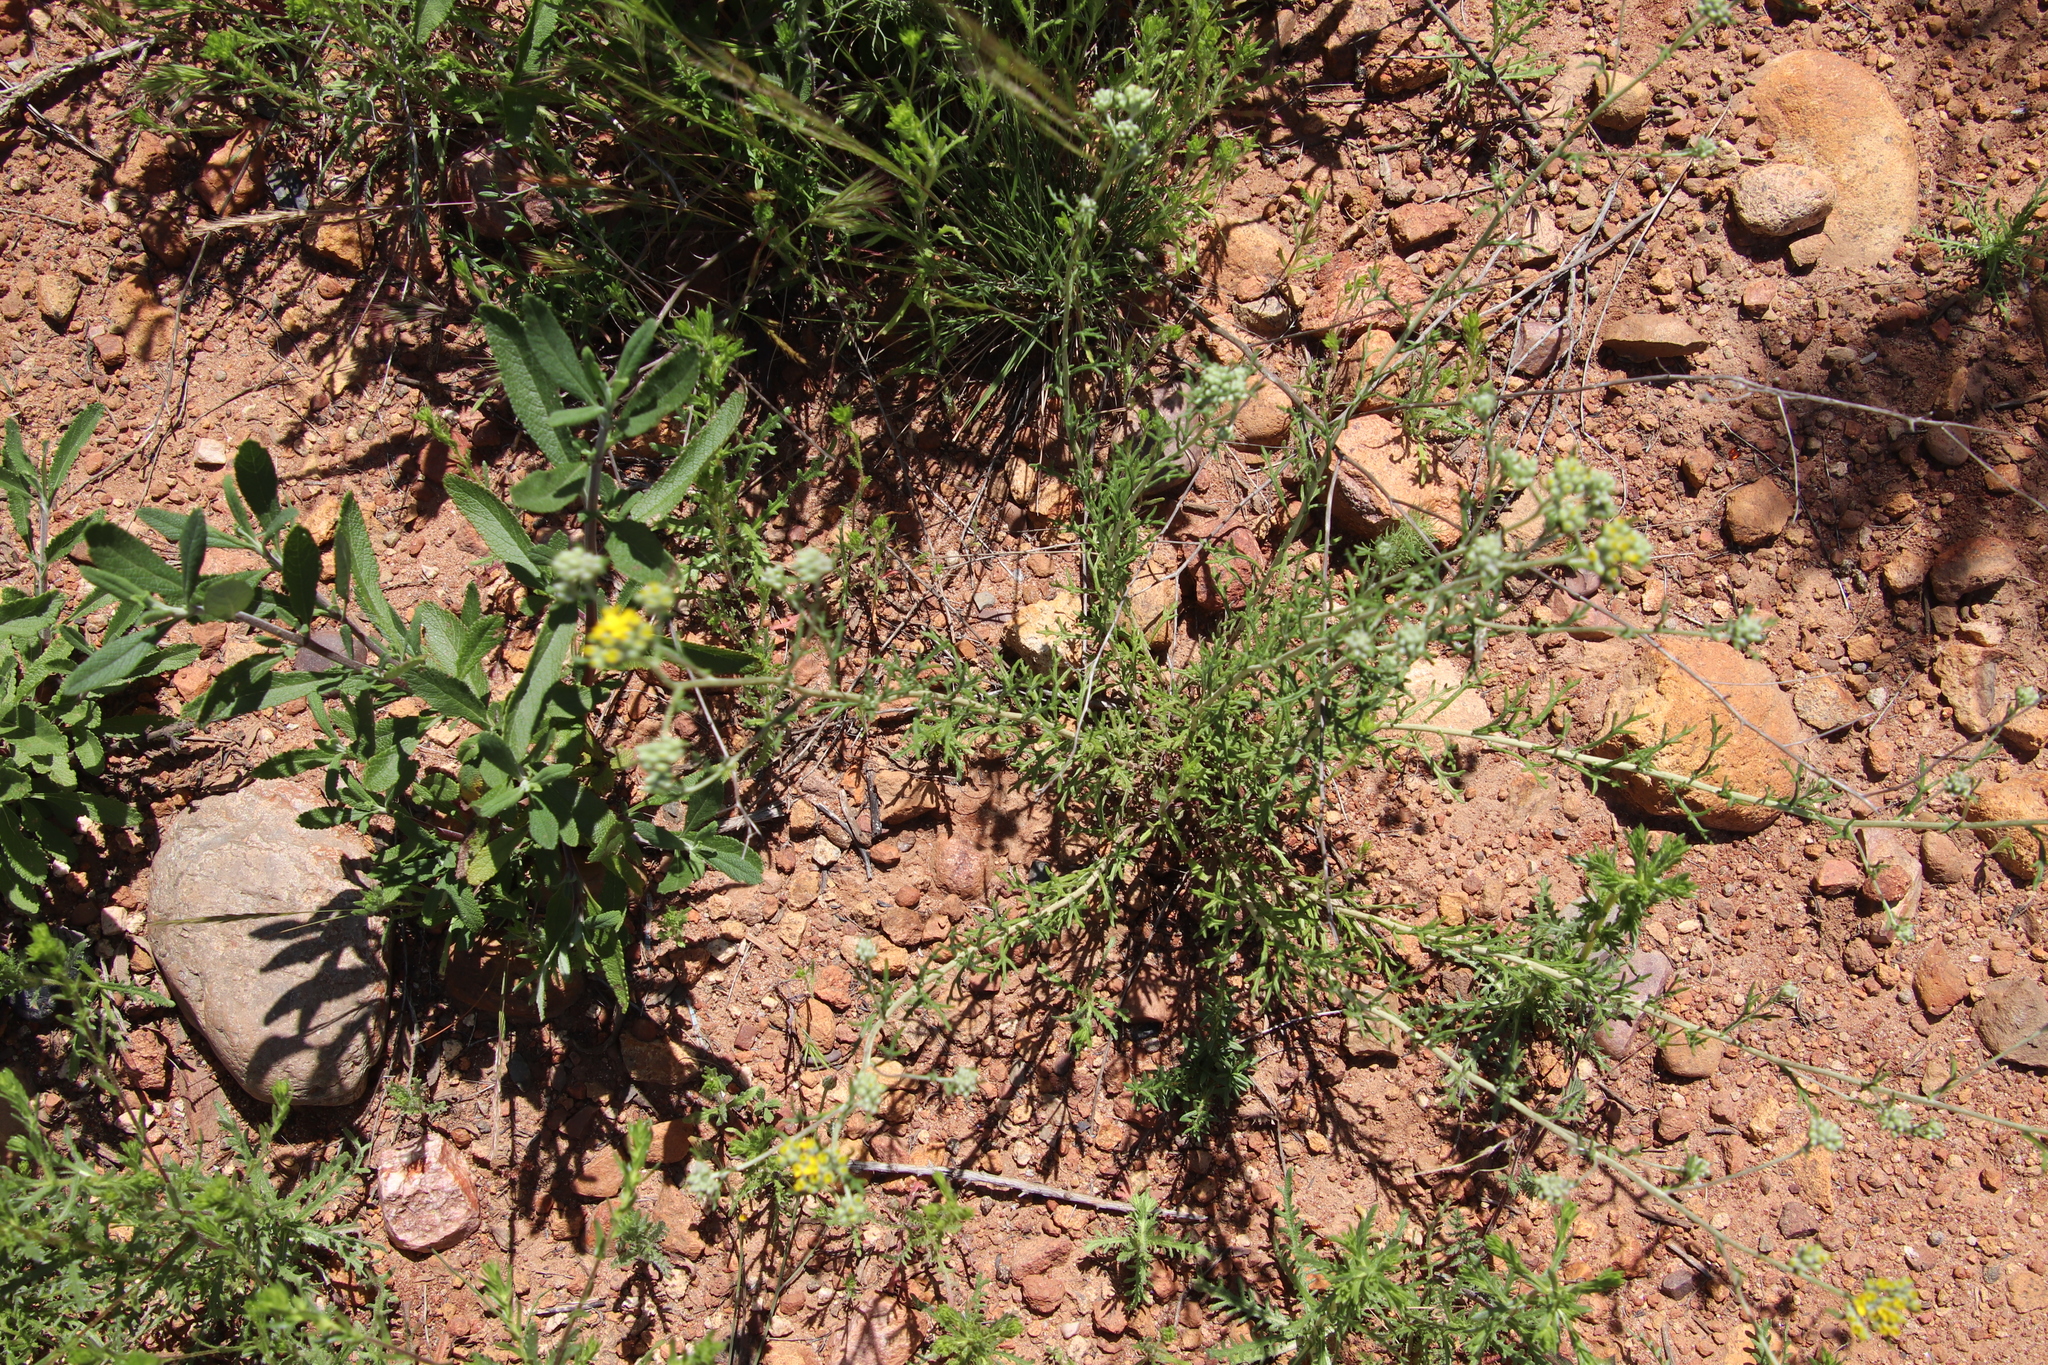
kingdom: Plantae
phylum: Tracheophyta
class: Magnoliopsida
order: Asterales
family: Asteraceae
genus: Eriophyllum
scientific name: Eriophyllum confertiflorum
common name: Golden-yarrow
